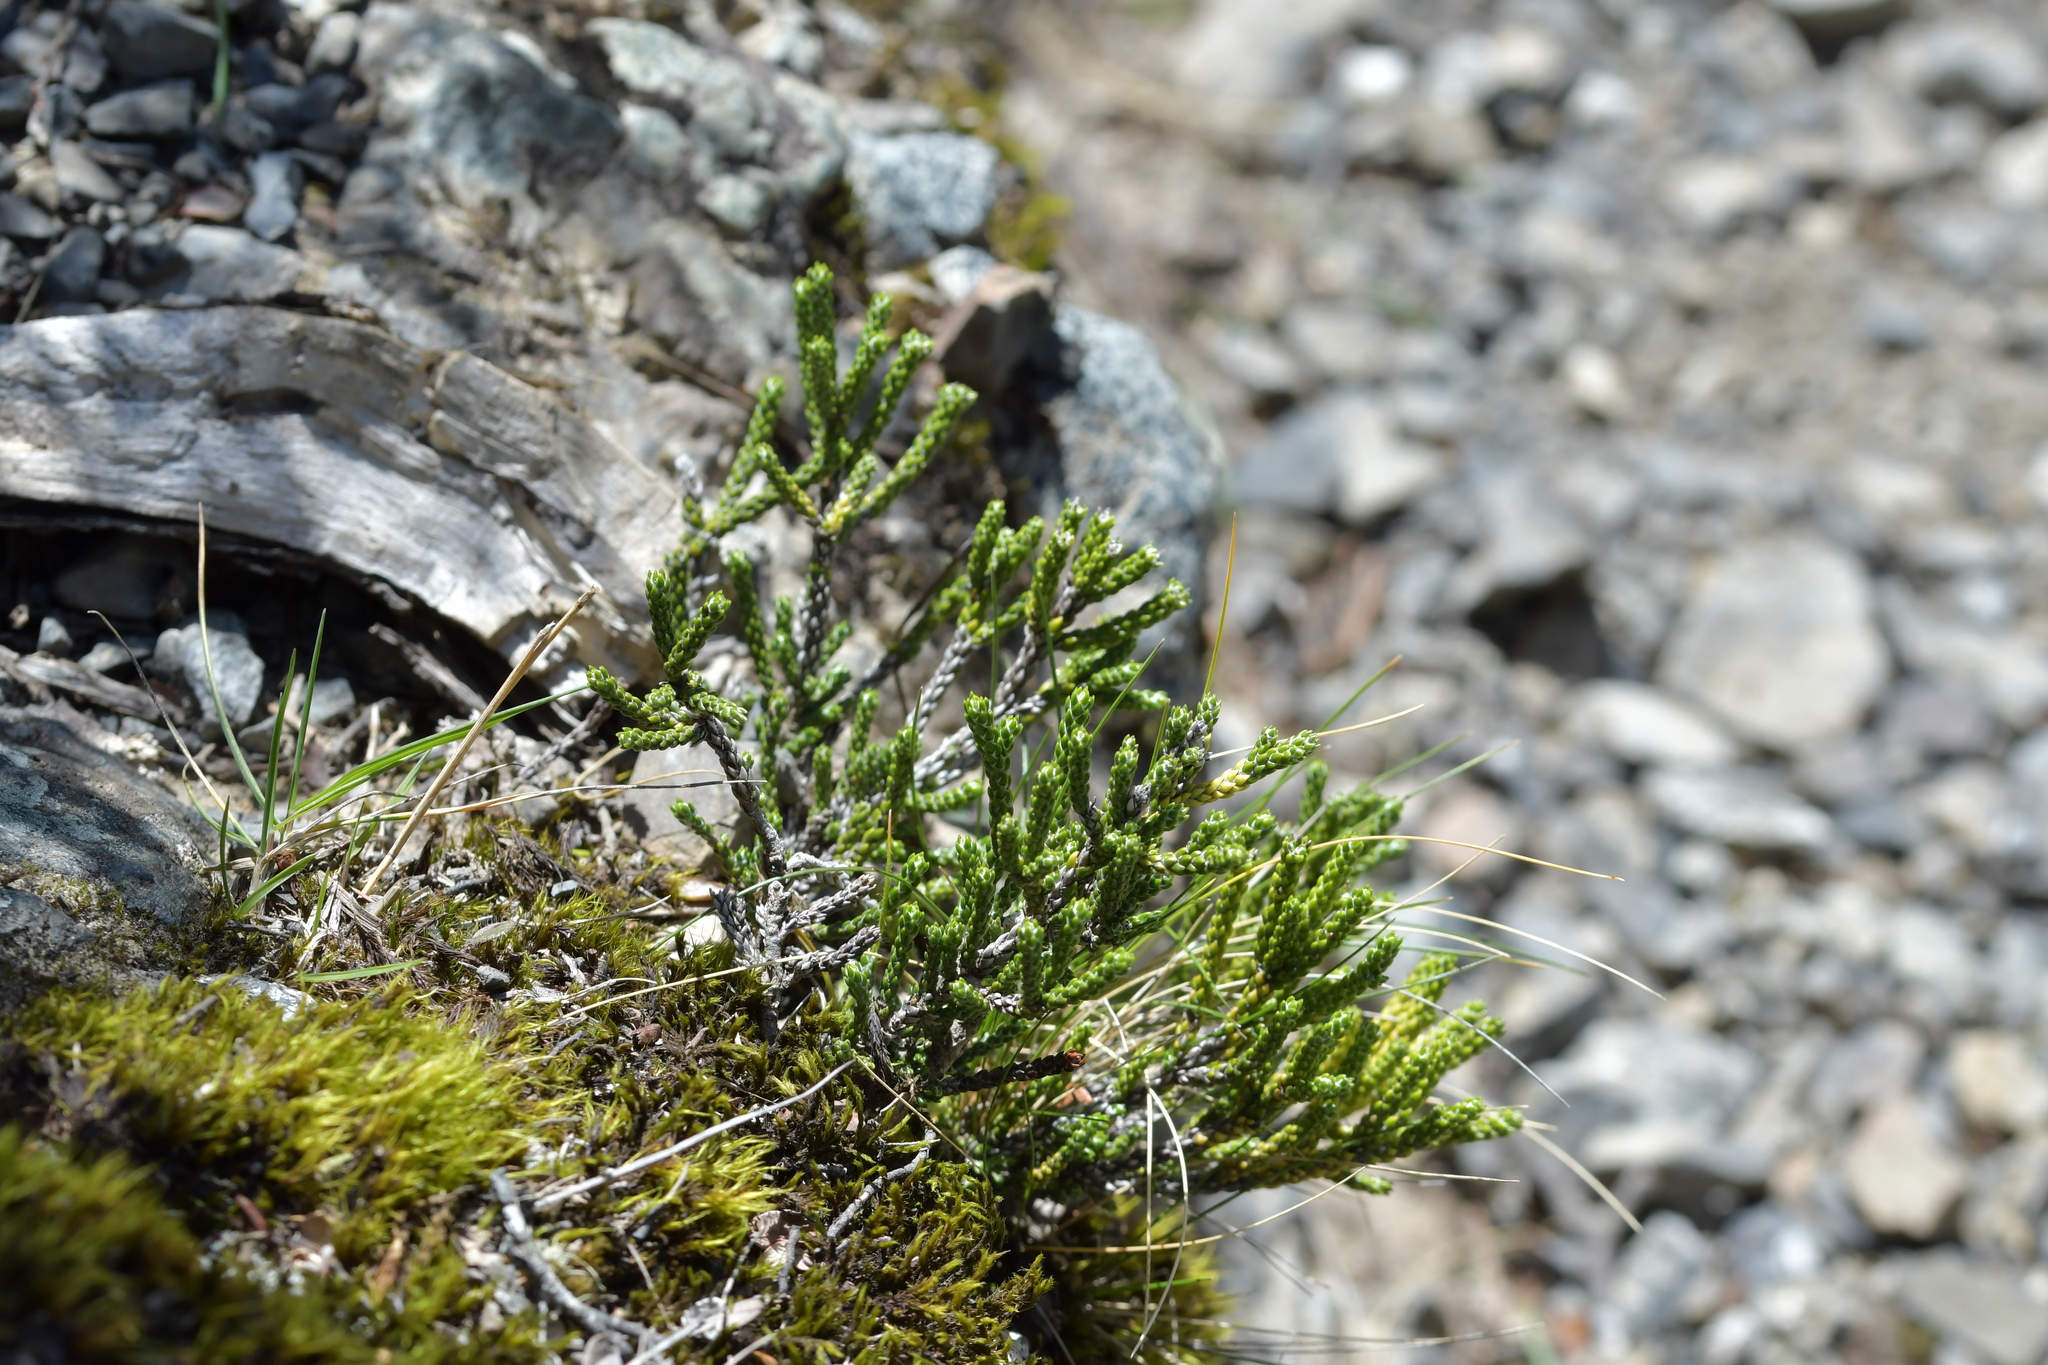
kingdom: Plantae
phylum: Tracheophyta
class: Magnoliopsida
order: Asterales
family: Asteraceae
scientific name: Asteraceae
